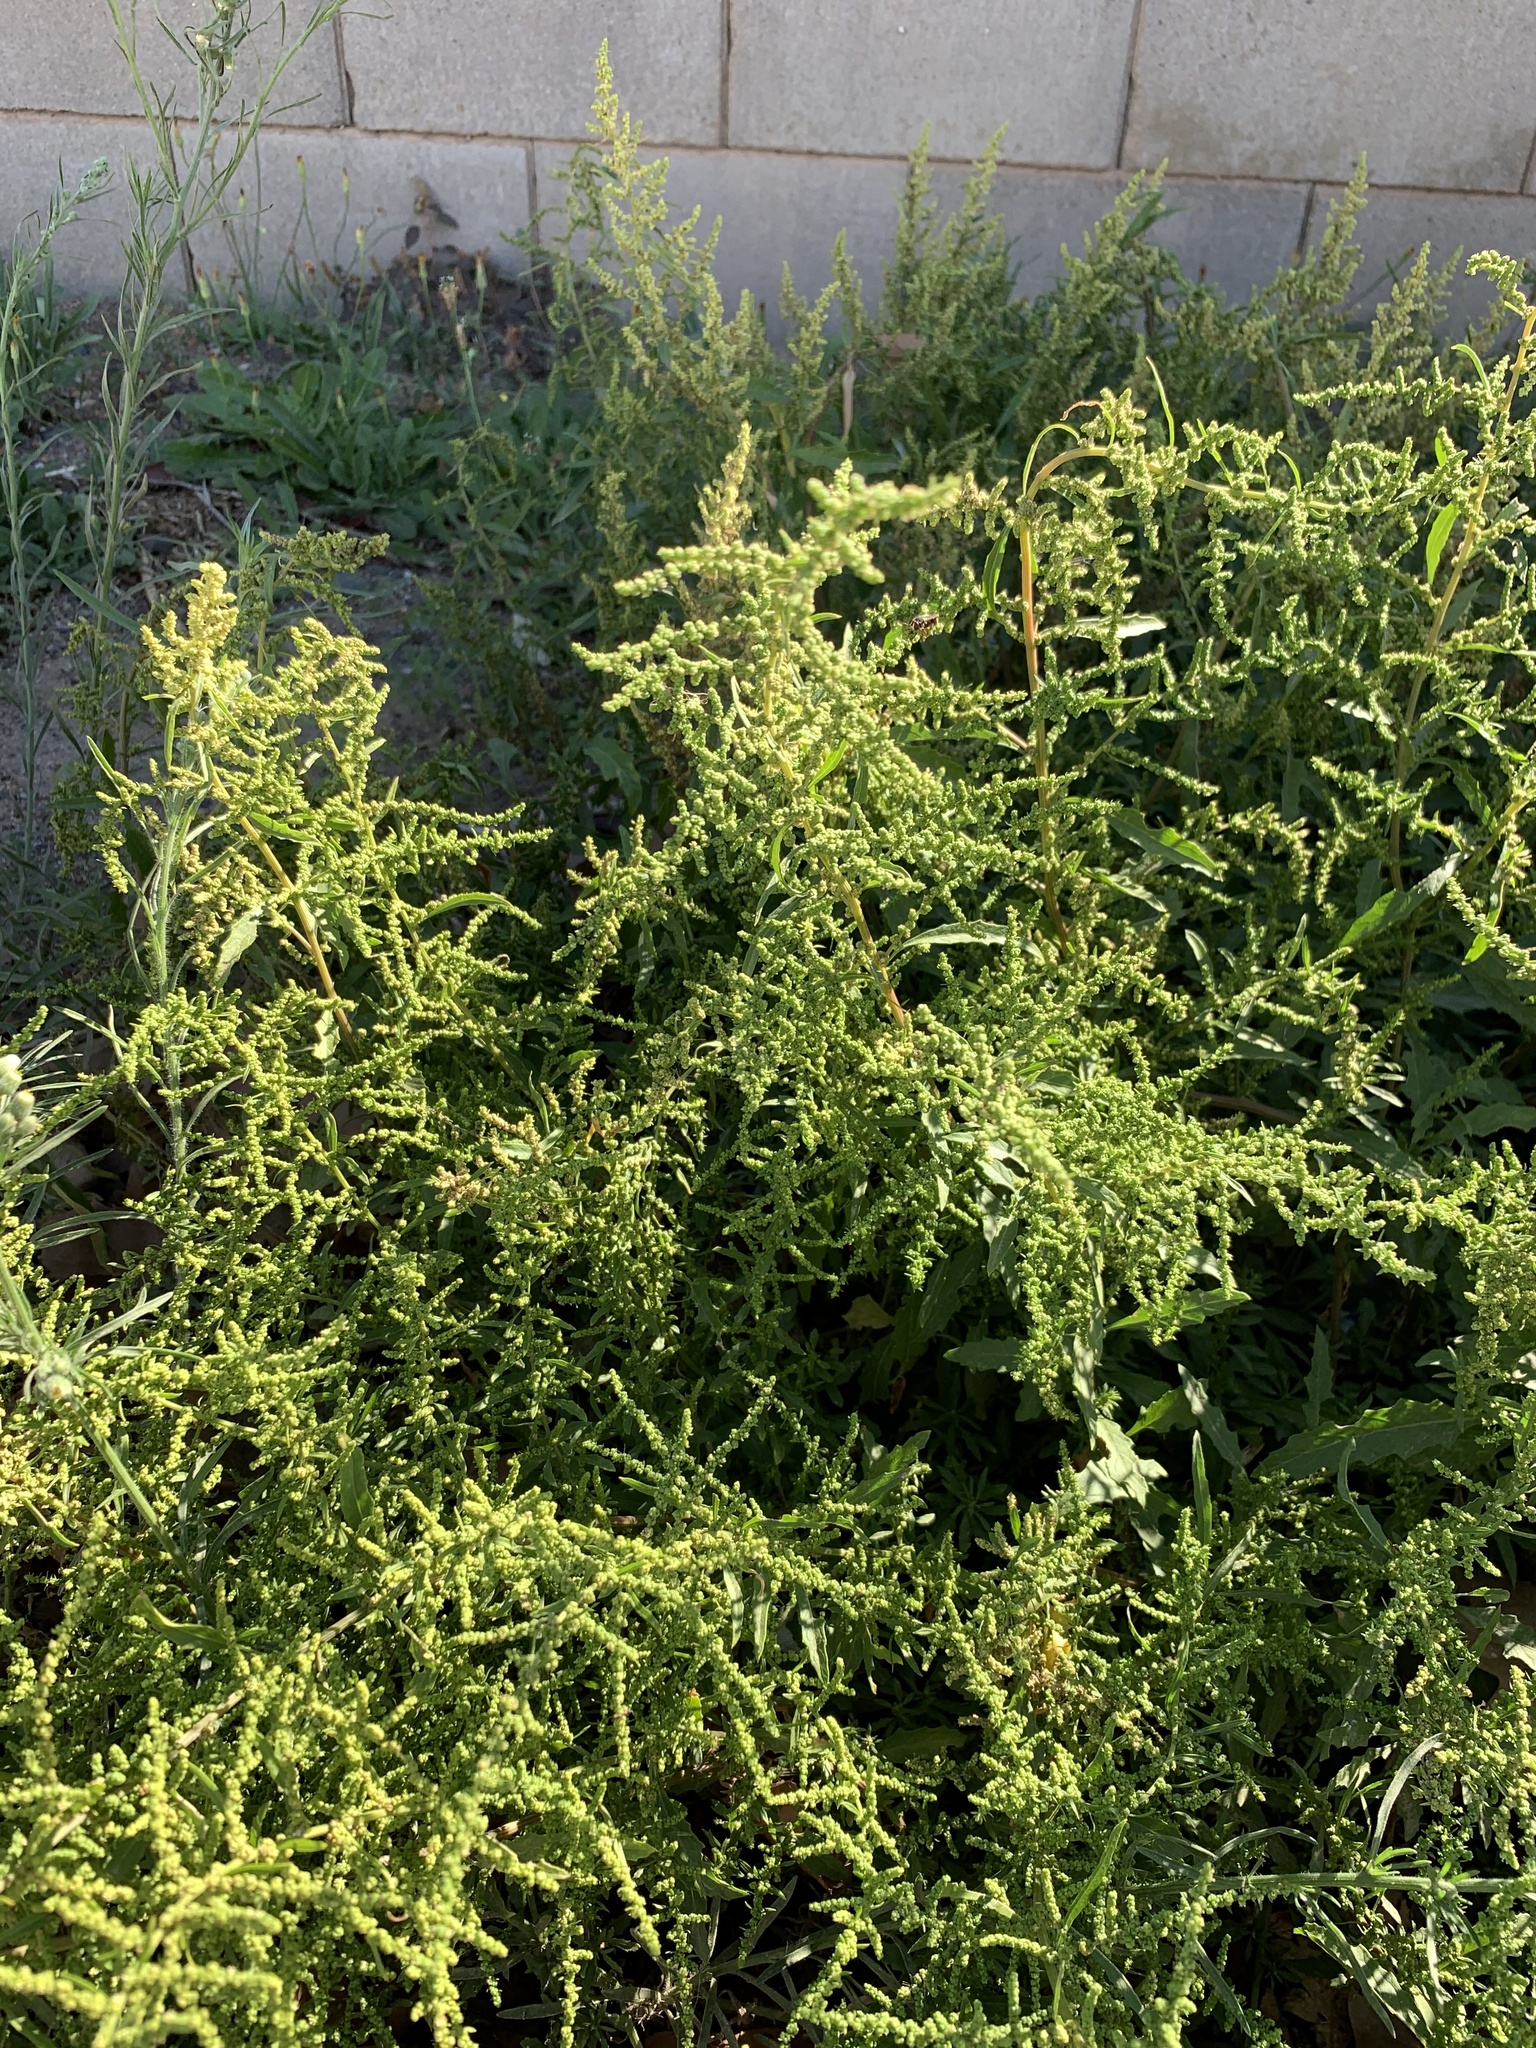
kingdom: Plantae
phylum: Tracheophyta
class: Magnoliopsida
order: Caryophyllales
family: Amaranthaceae
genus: Dysphania
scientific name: Dysphania ambrosioides
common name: Wormseed
